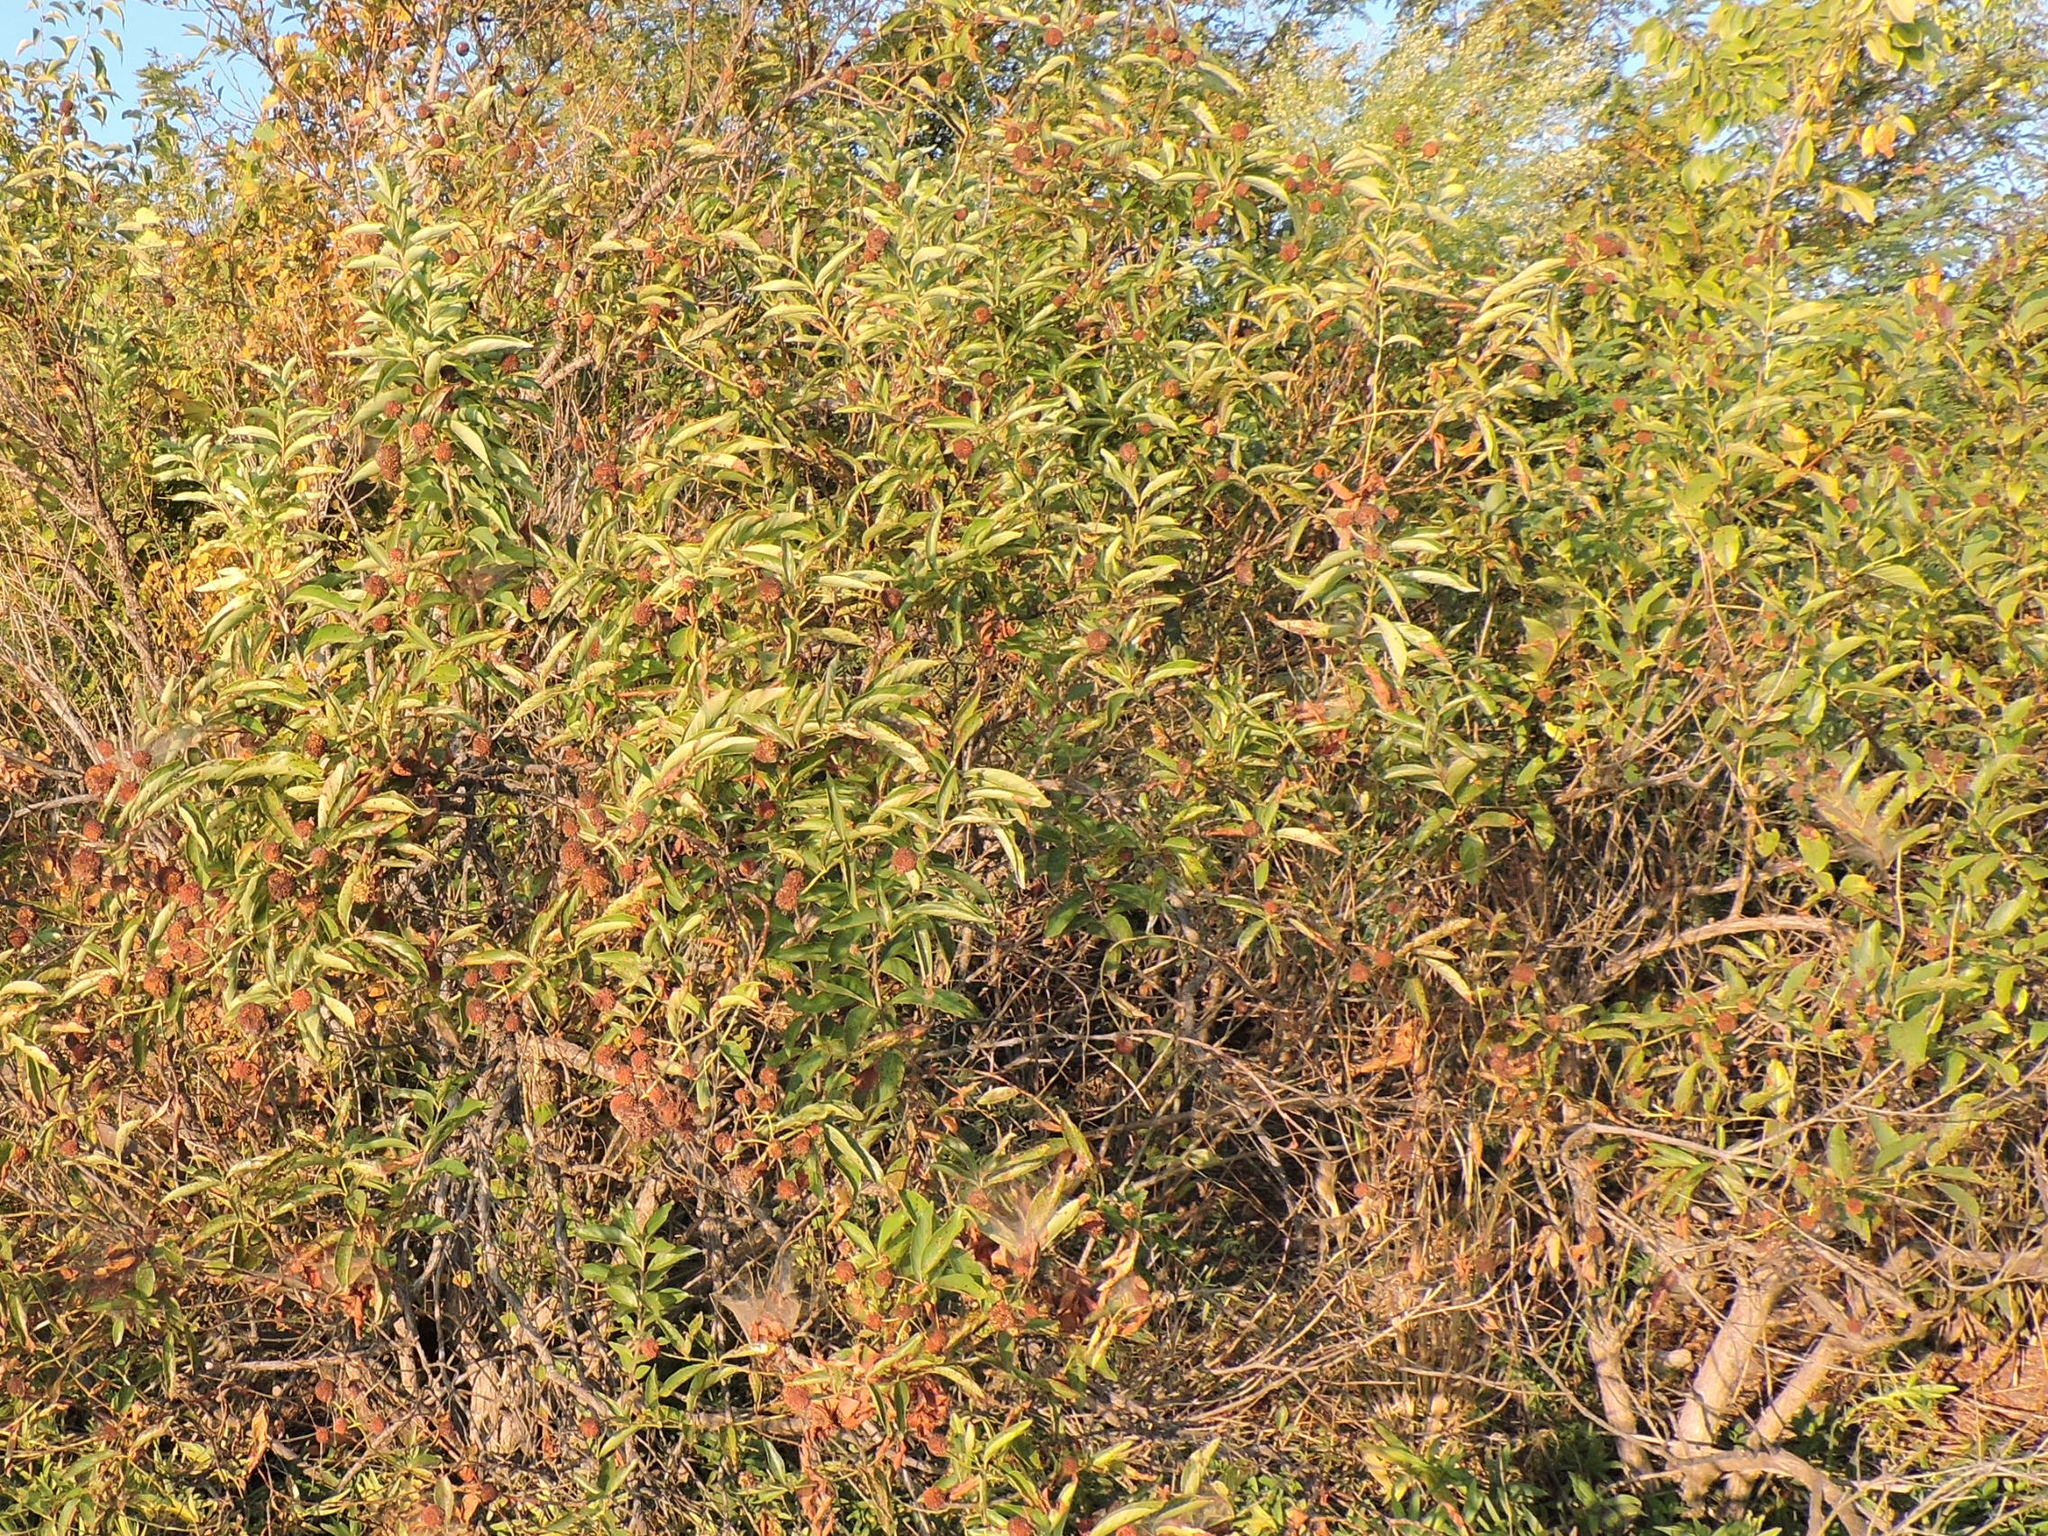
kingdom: Plantae
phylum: Tracheophyta
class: Magnoliopsida
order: Gentianales
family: Rubiaceae
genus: Cephalanthus
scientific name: Cephalanthus occidentalis
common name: Button-willow
